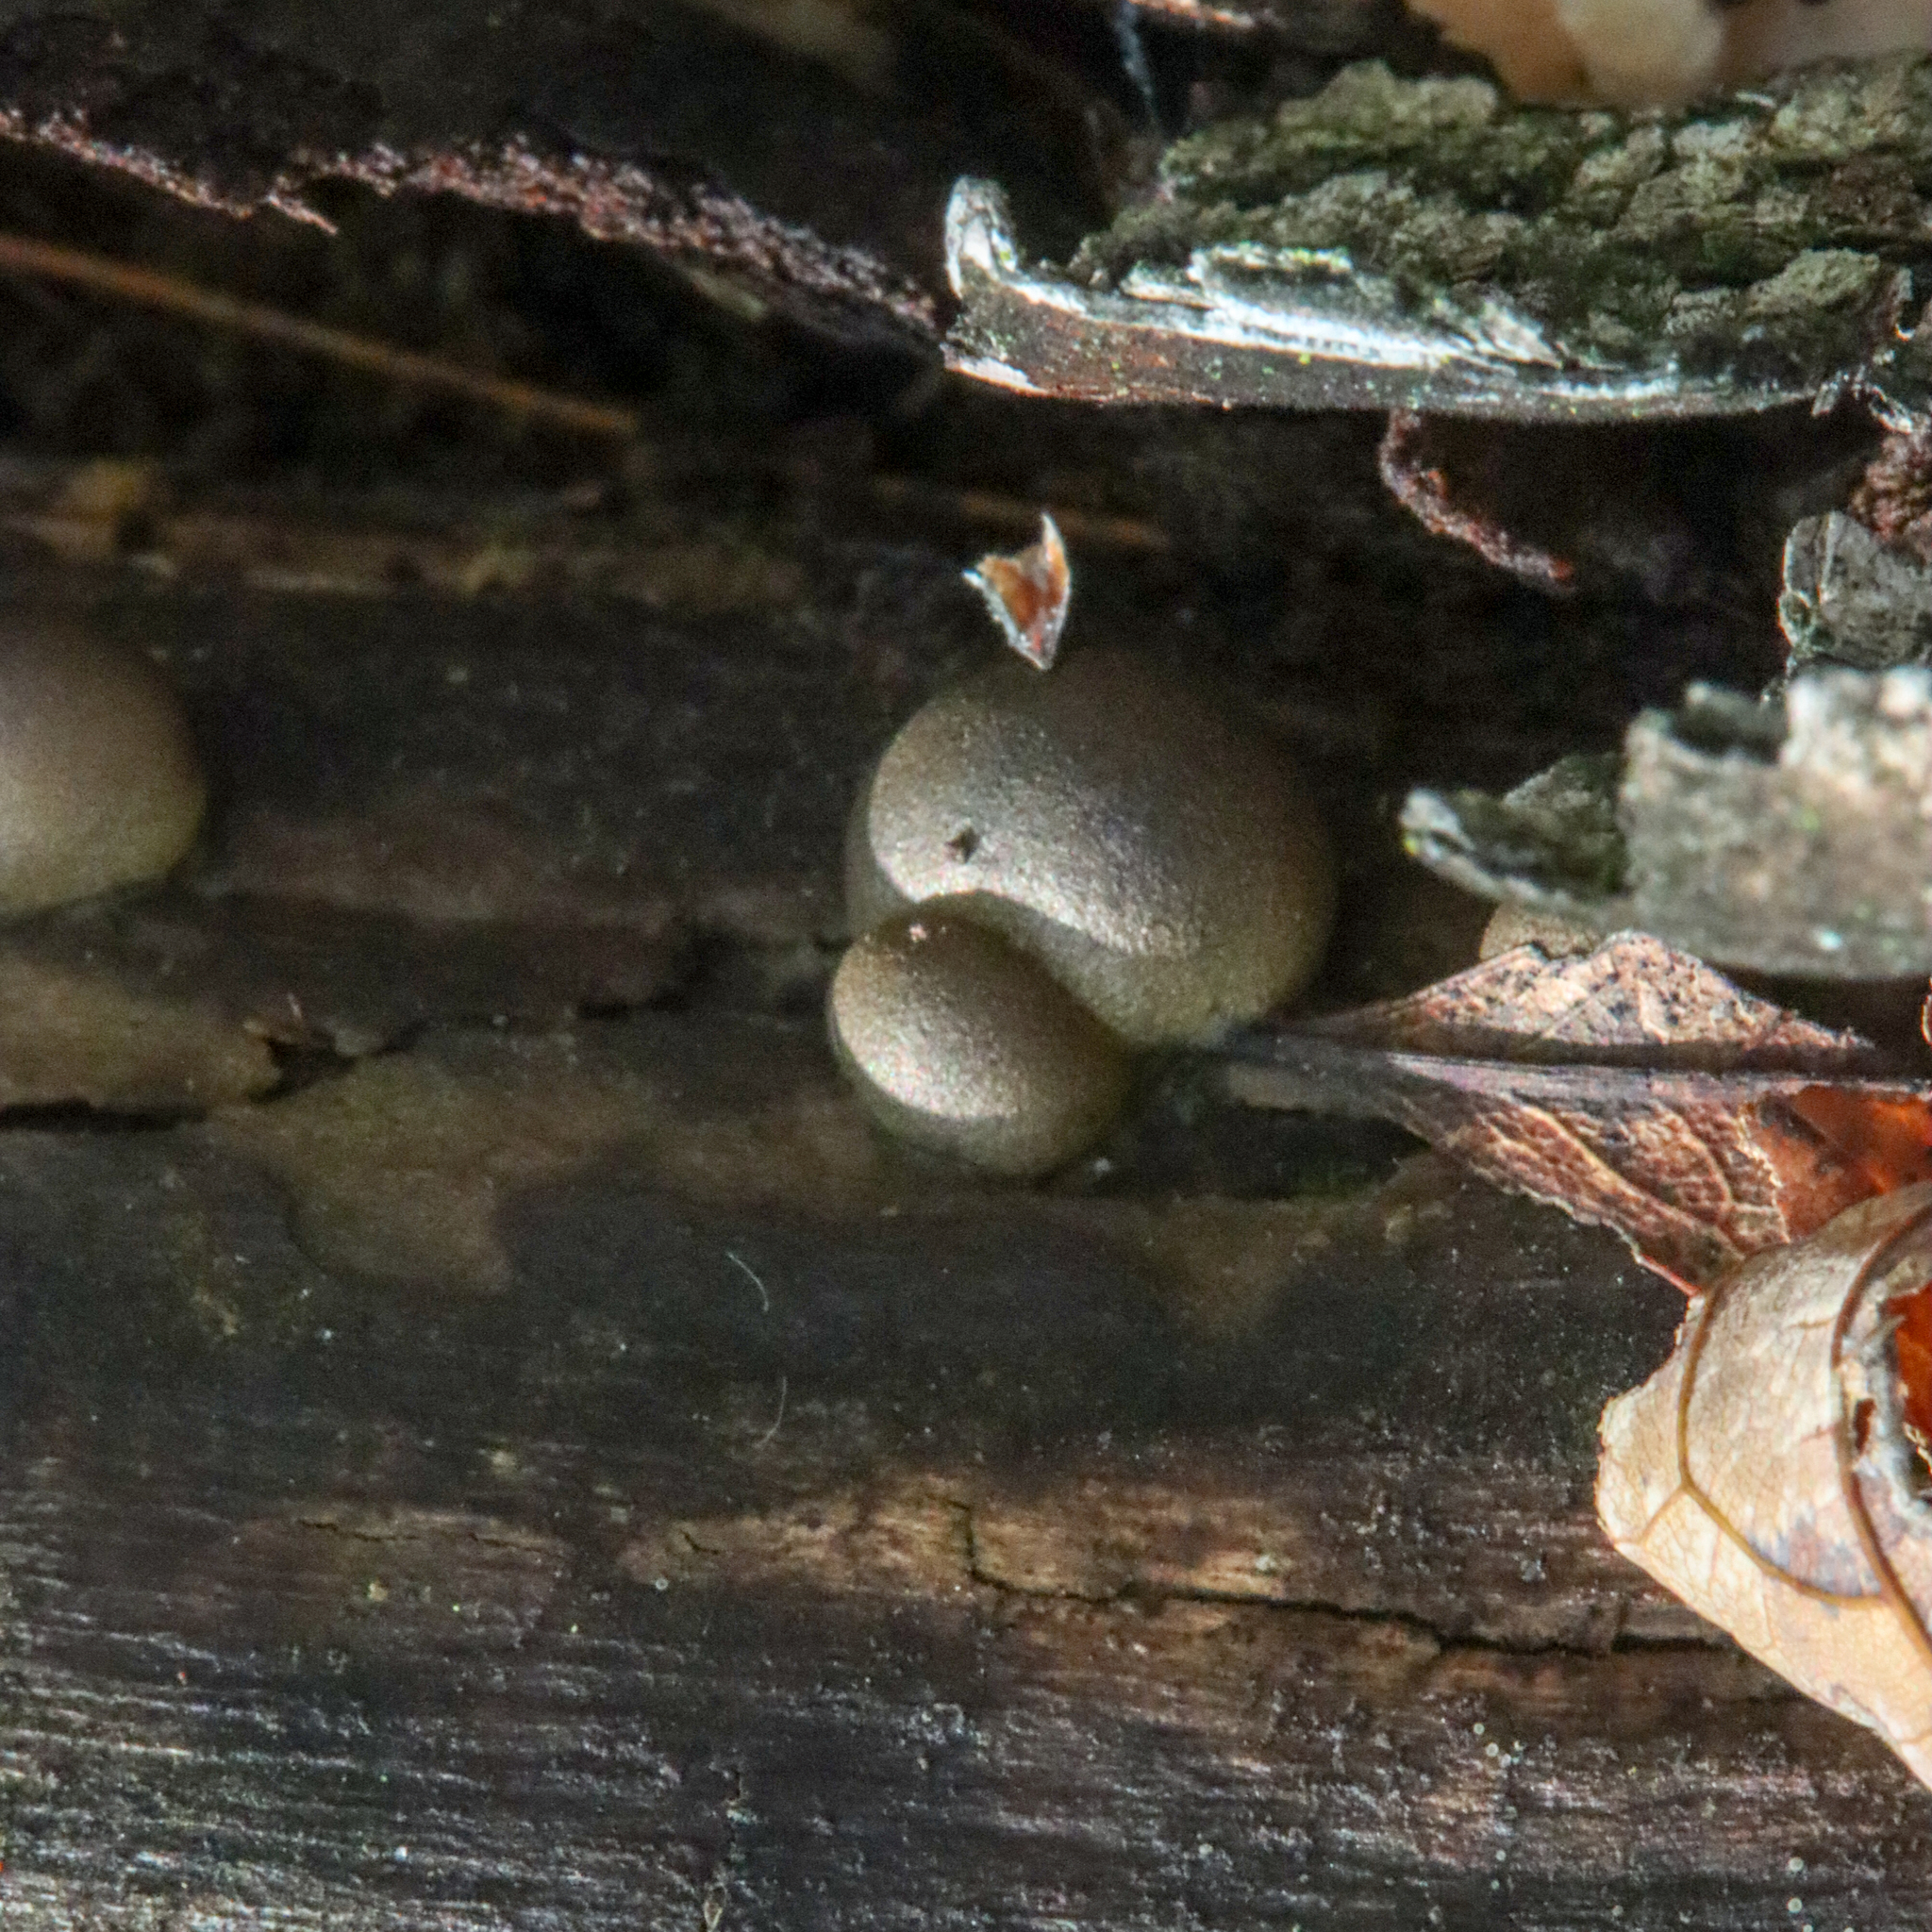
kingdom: Protozoa
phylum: Mycetozoa
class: Myxomycetes
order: Cribrariales
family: Tubiferaceae
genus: Lycogala
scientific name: Lycogala epidendrum
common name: Wolf's milk
